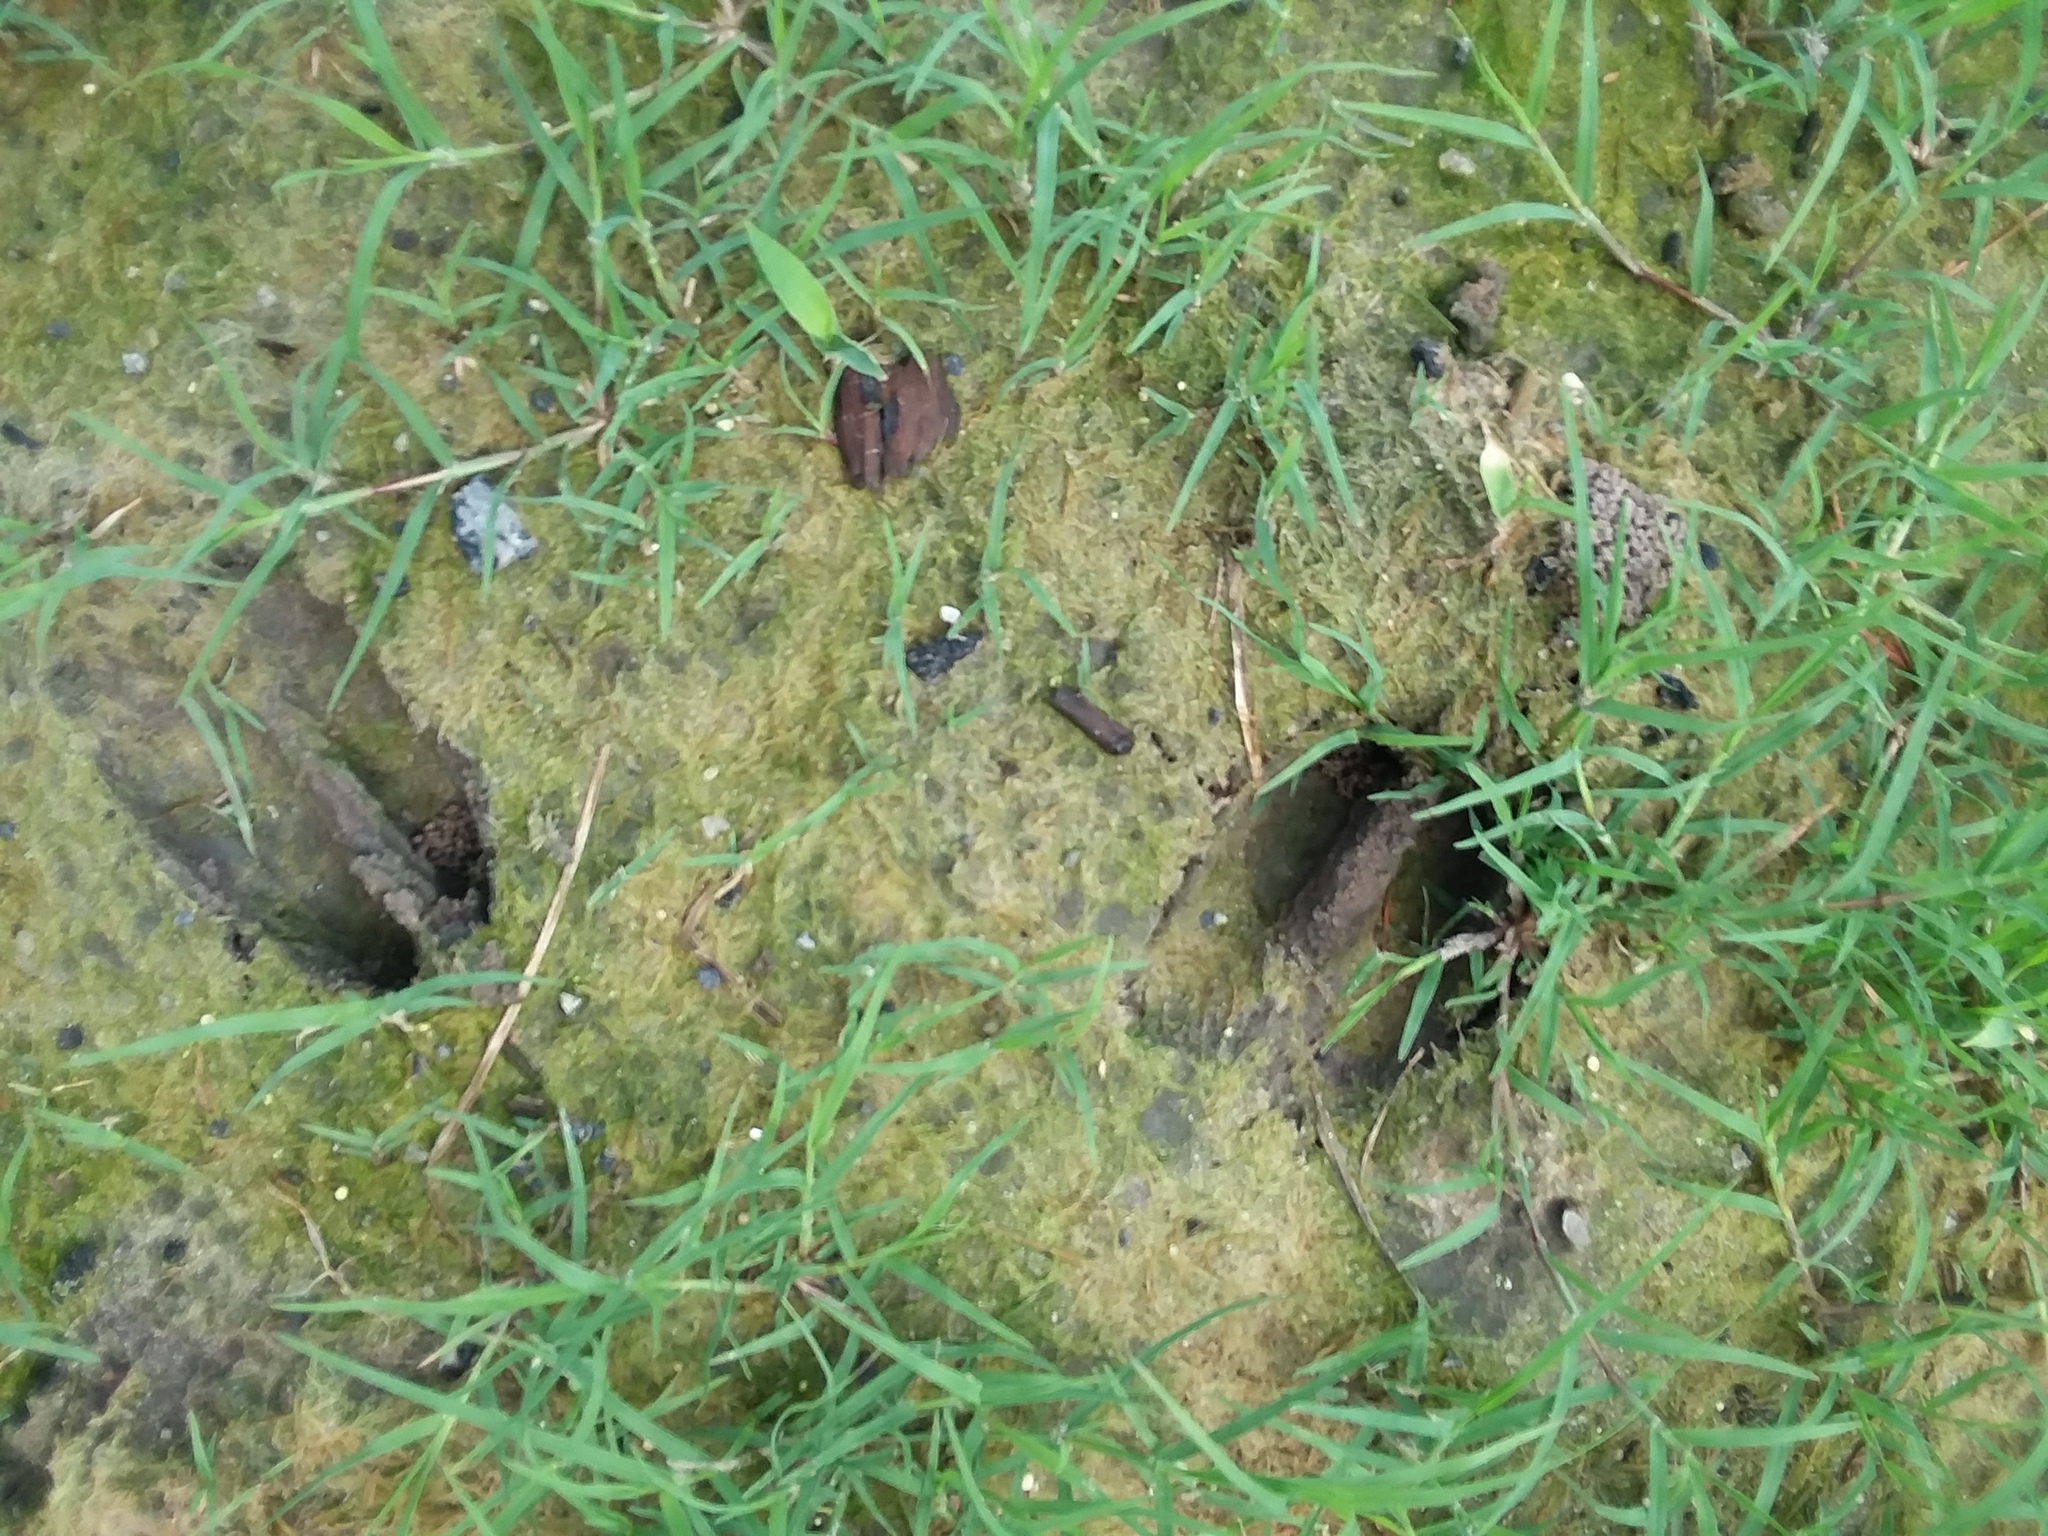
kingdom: Animalia
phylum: Chordata
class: Mammalia
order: Artiodactyla
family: Cervidae
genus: Odocoileus
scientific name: Odocoileus virginianus
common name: White-tailed deer
